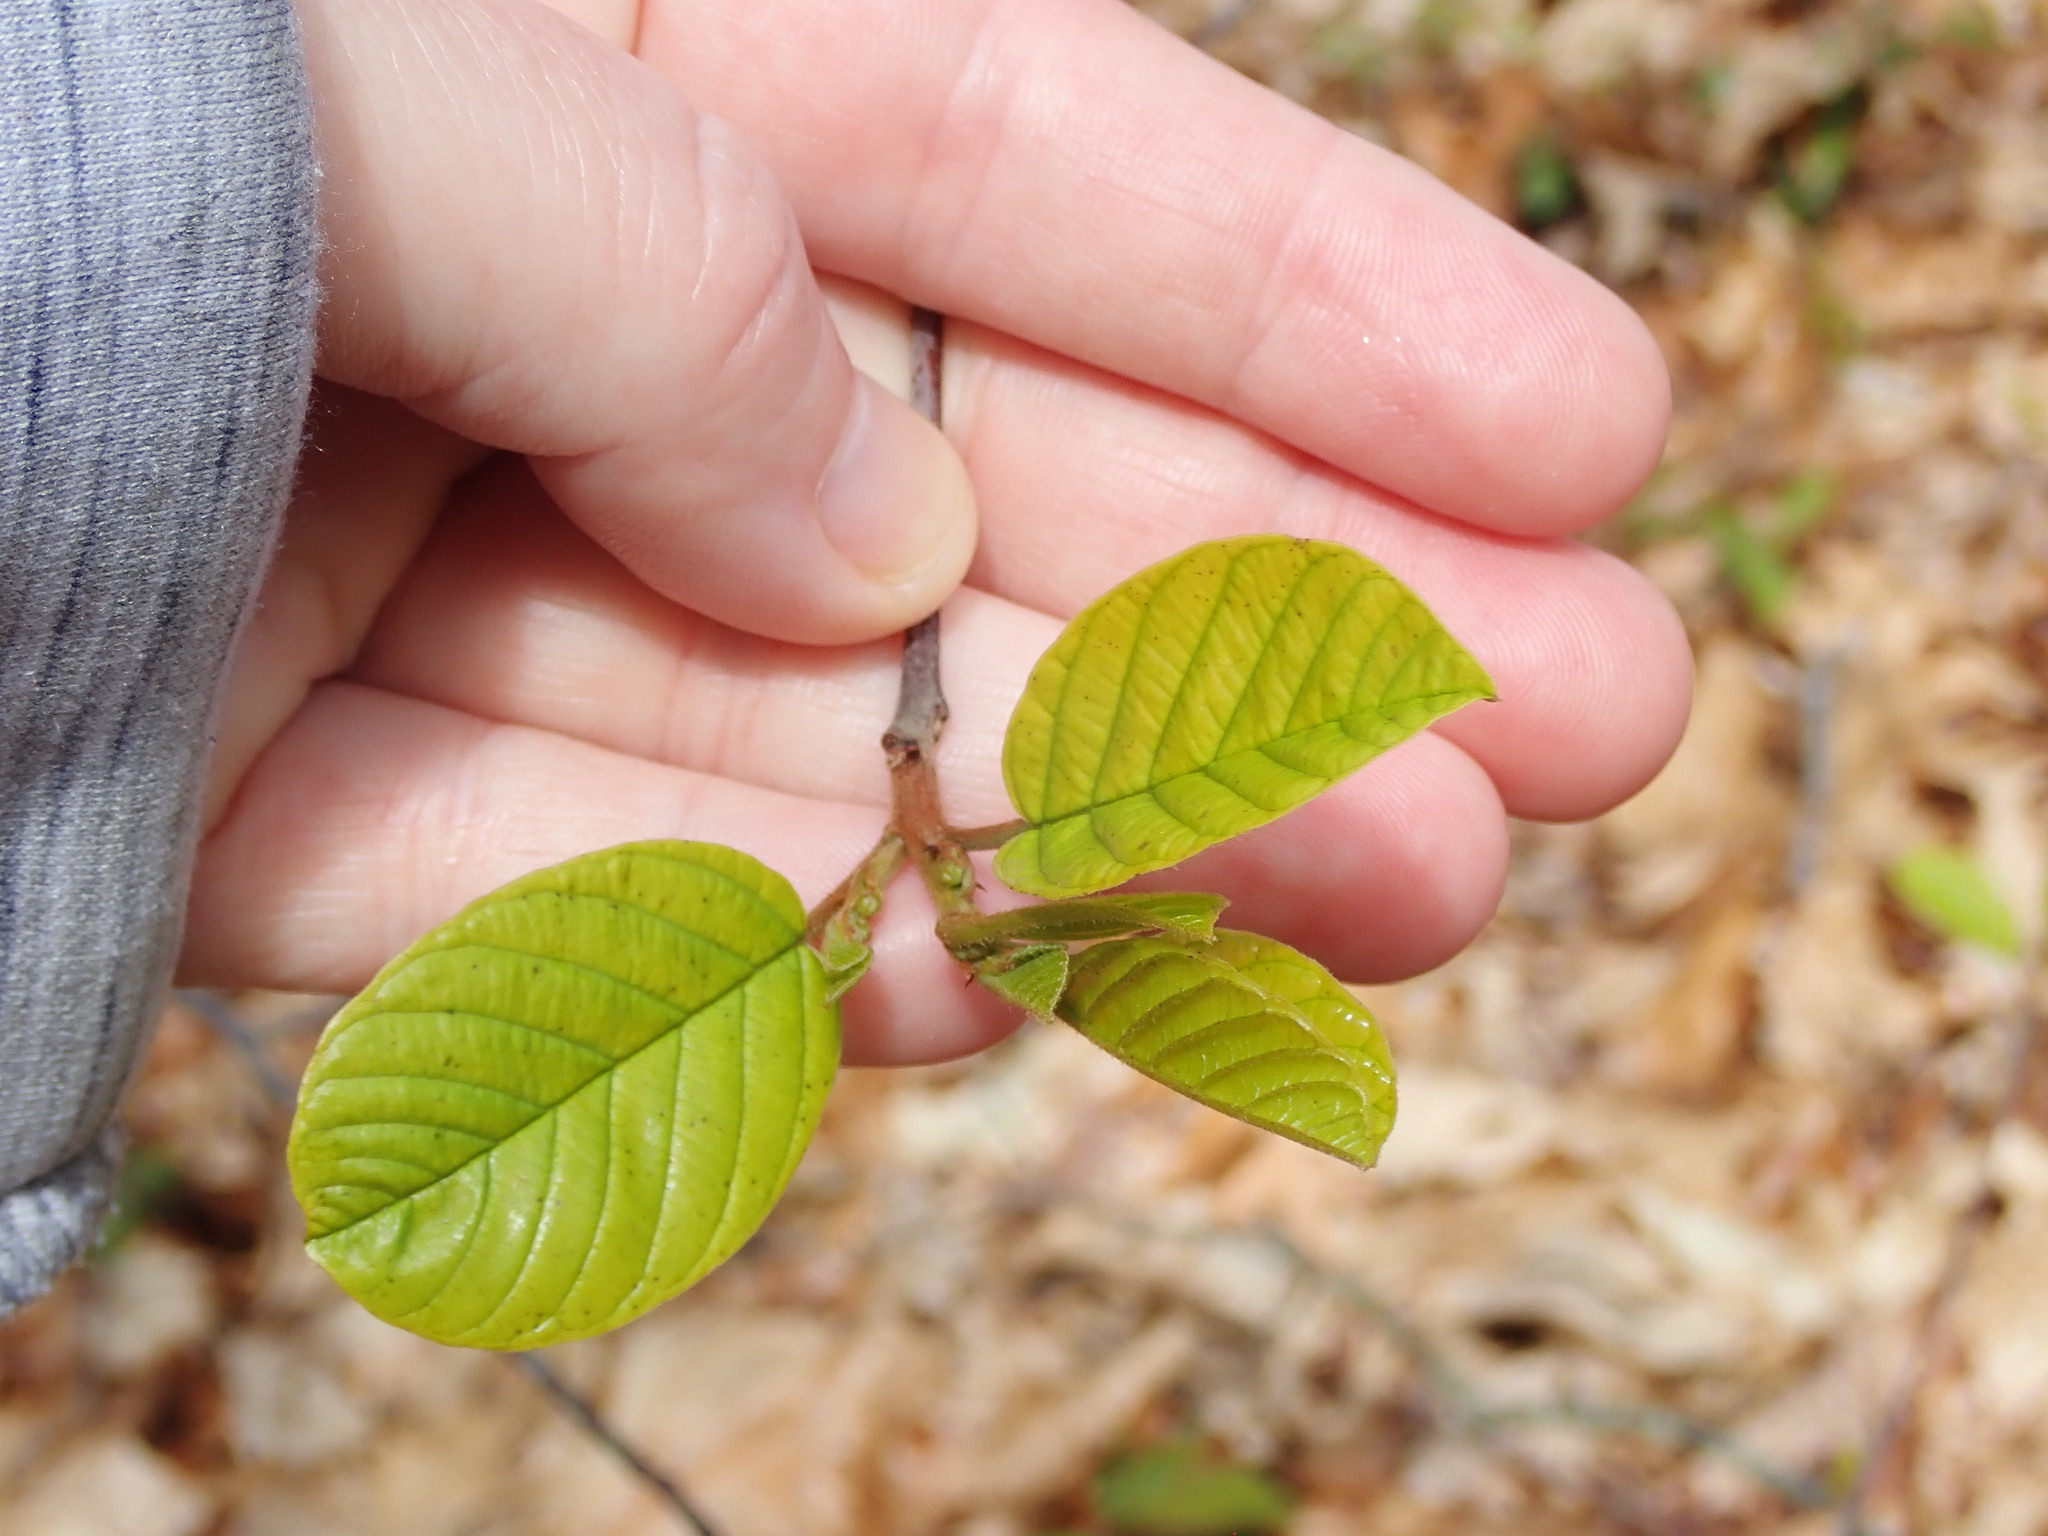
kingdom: Plantae
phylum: Tracheophyta
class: Magnoliopsida
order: Rosales
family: Rhamnaceae
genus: Frangula
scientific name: Frangula alnus
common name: Alder buckthorn
